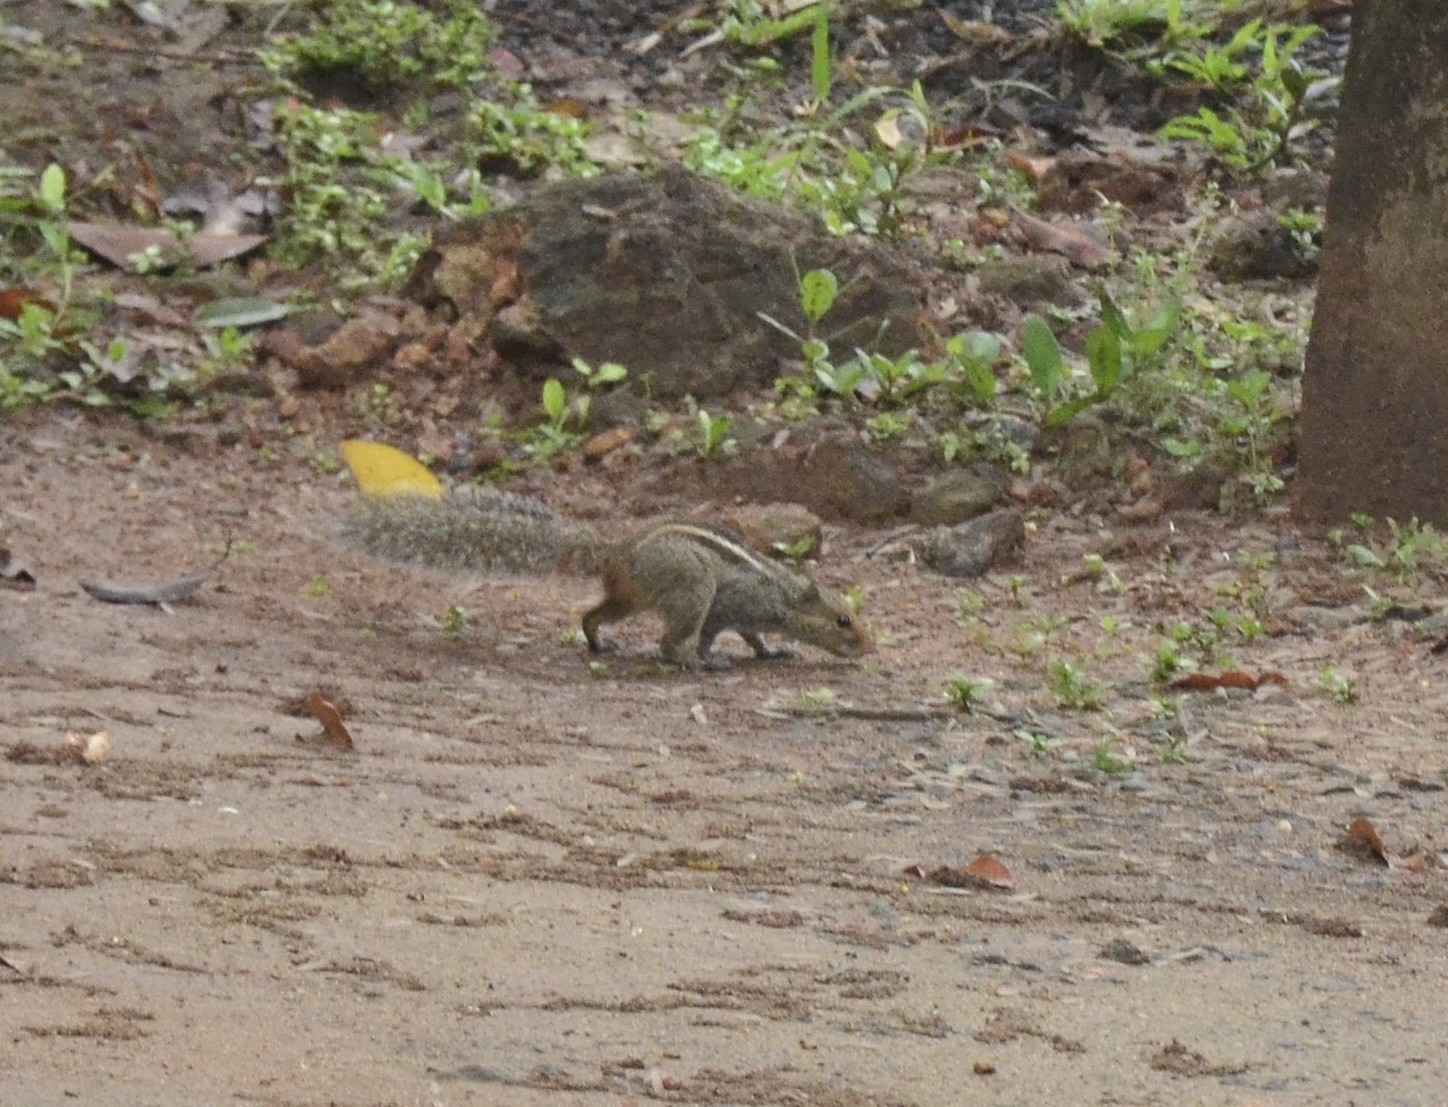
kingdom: Animalia
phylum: Chordata
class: Mammalia
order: Rodentia
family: Sciuridae
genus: Funambulus
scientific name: Funambulus tristriatus
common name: Jungle palm squirrel
